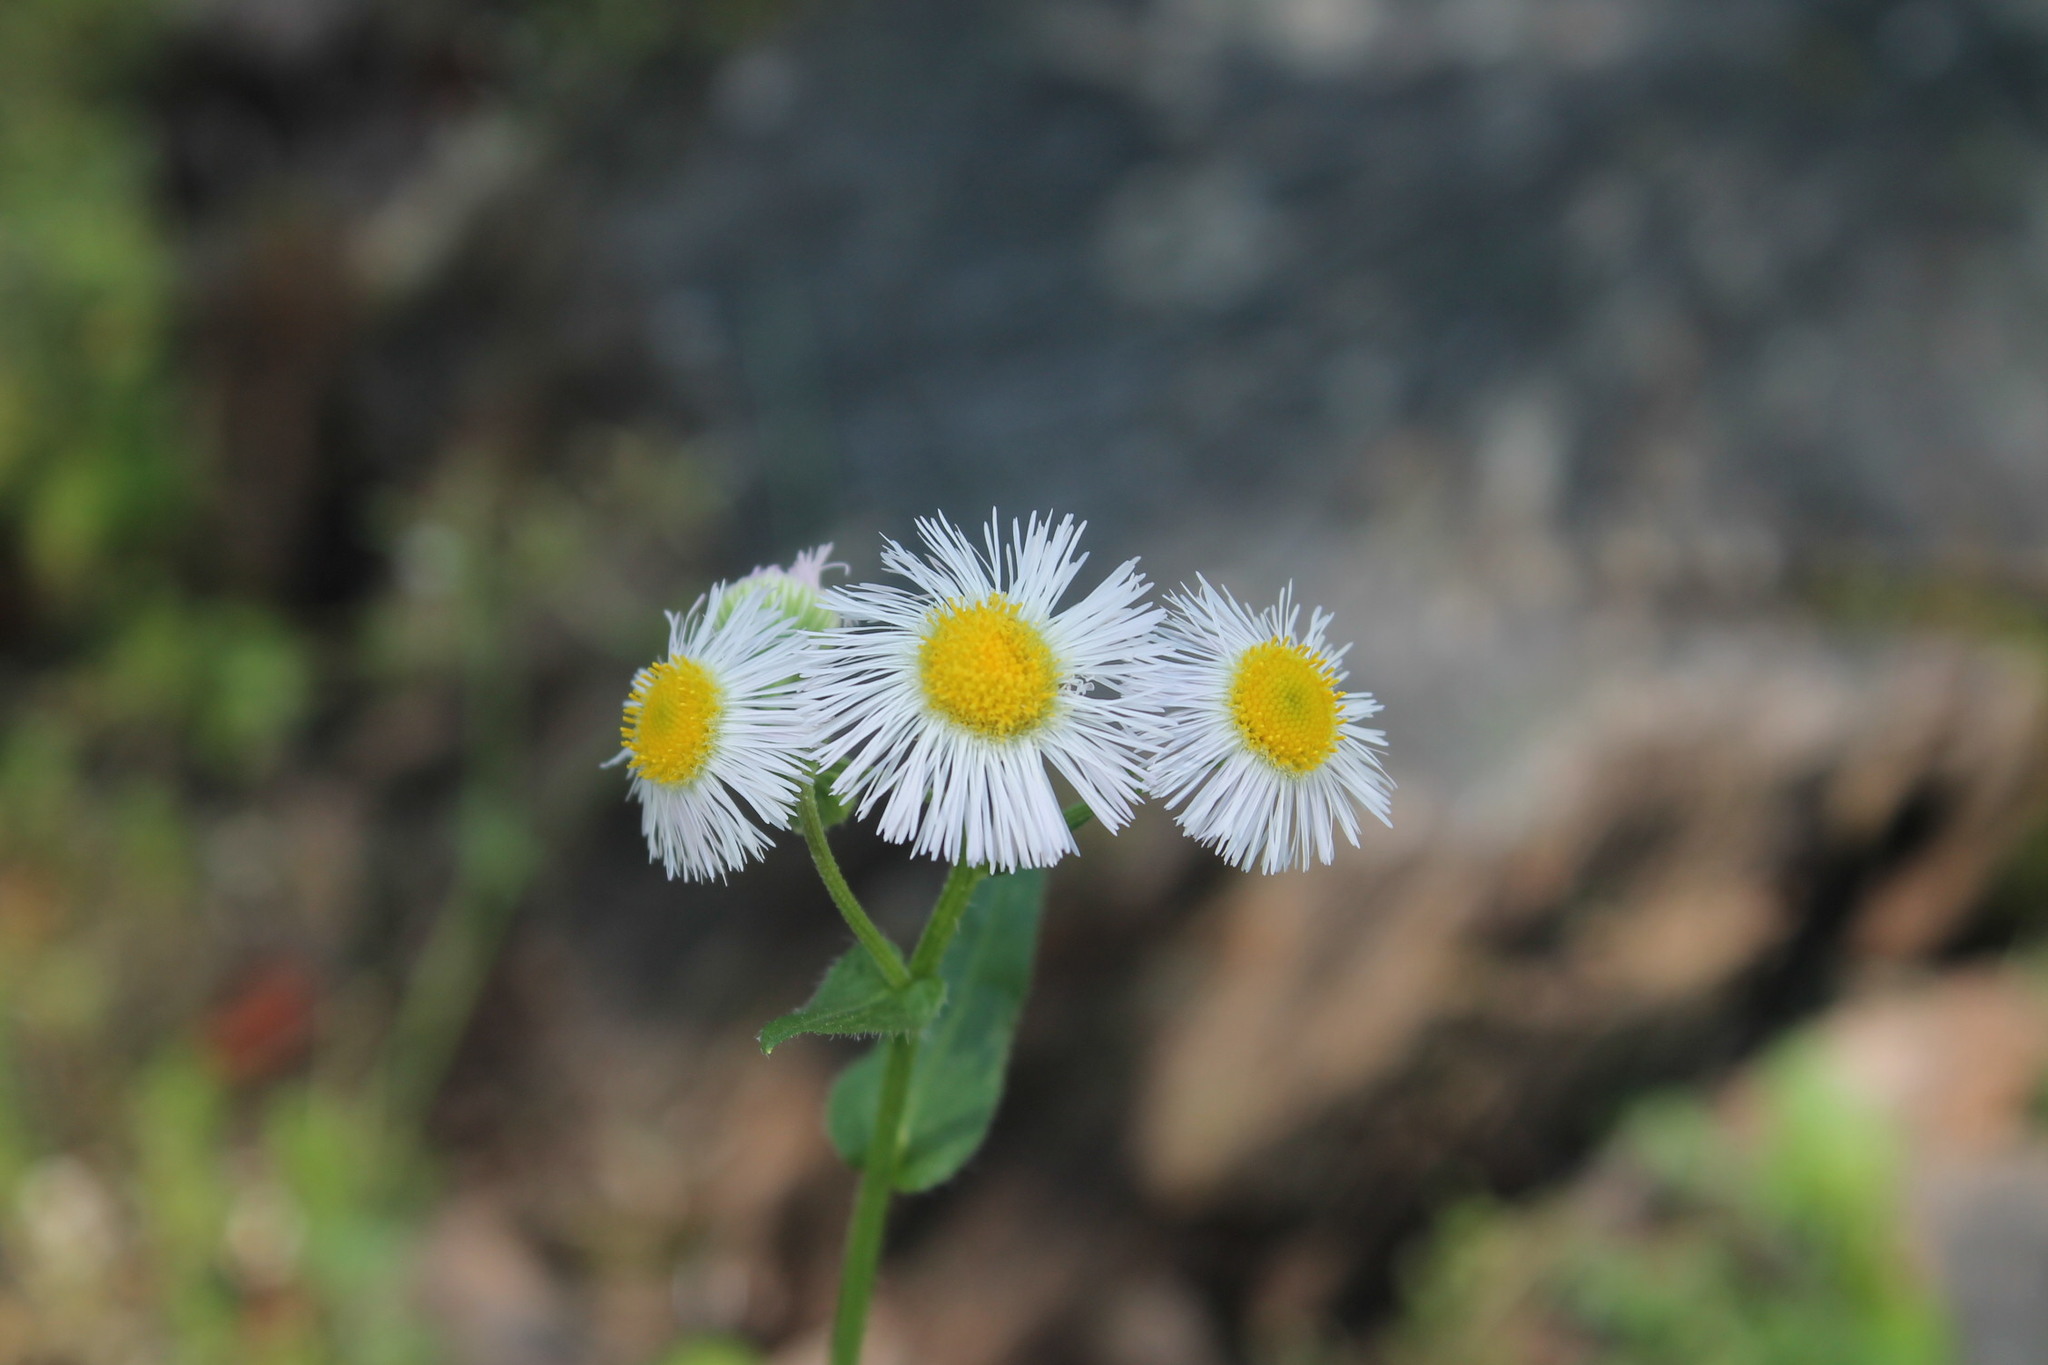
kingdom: Plantae
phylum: Tracheophyta
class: Magnoliopsida
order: Asterales
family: Asteraceae
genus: Erigeron
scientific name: Erigeron philadelphicus
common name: Robin's-plantain
